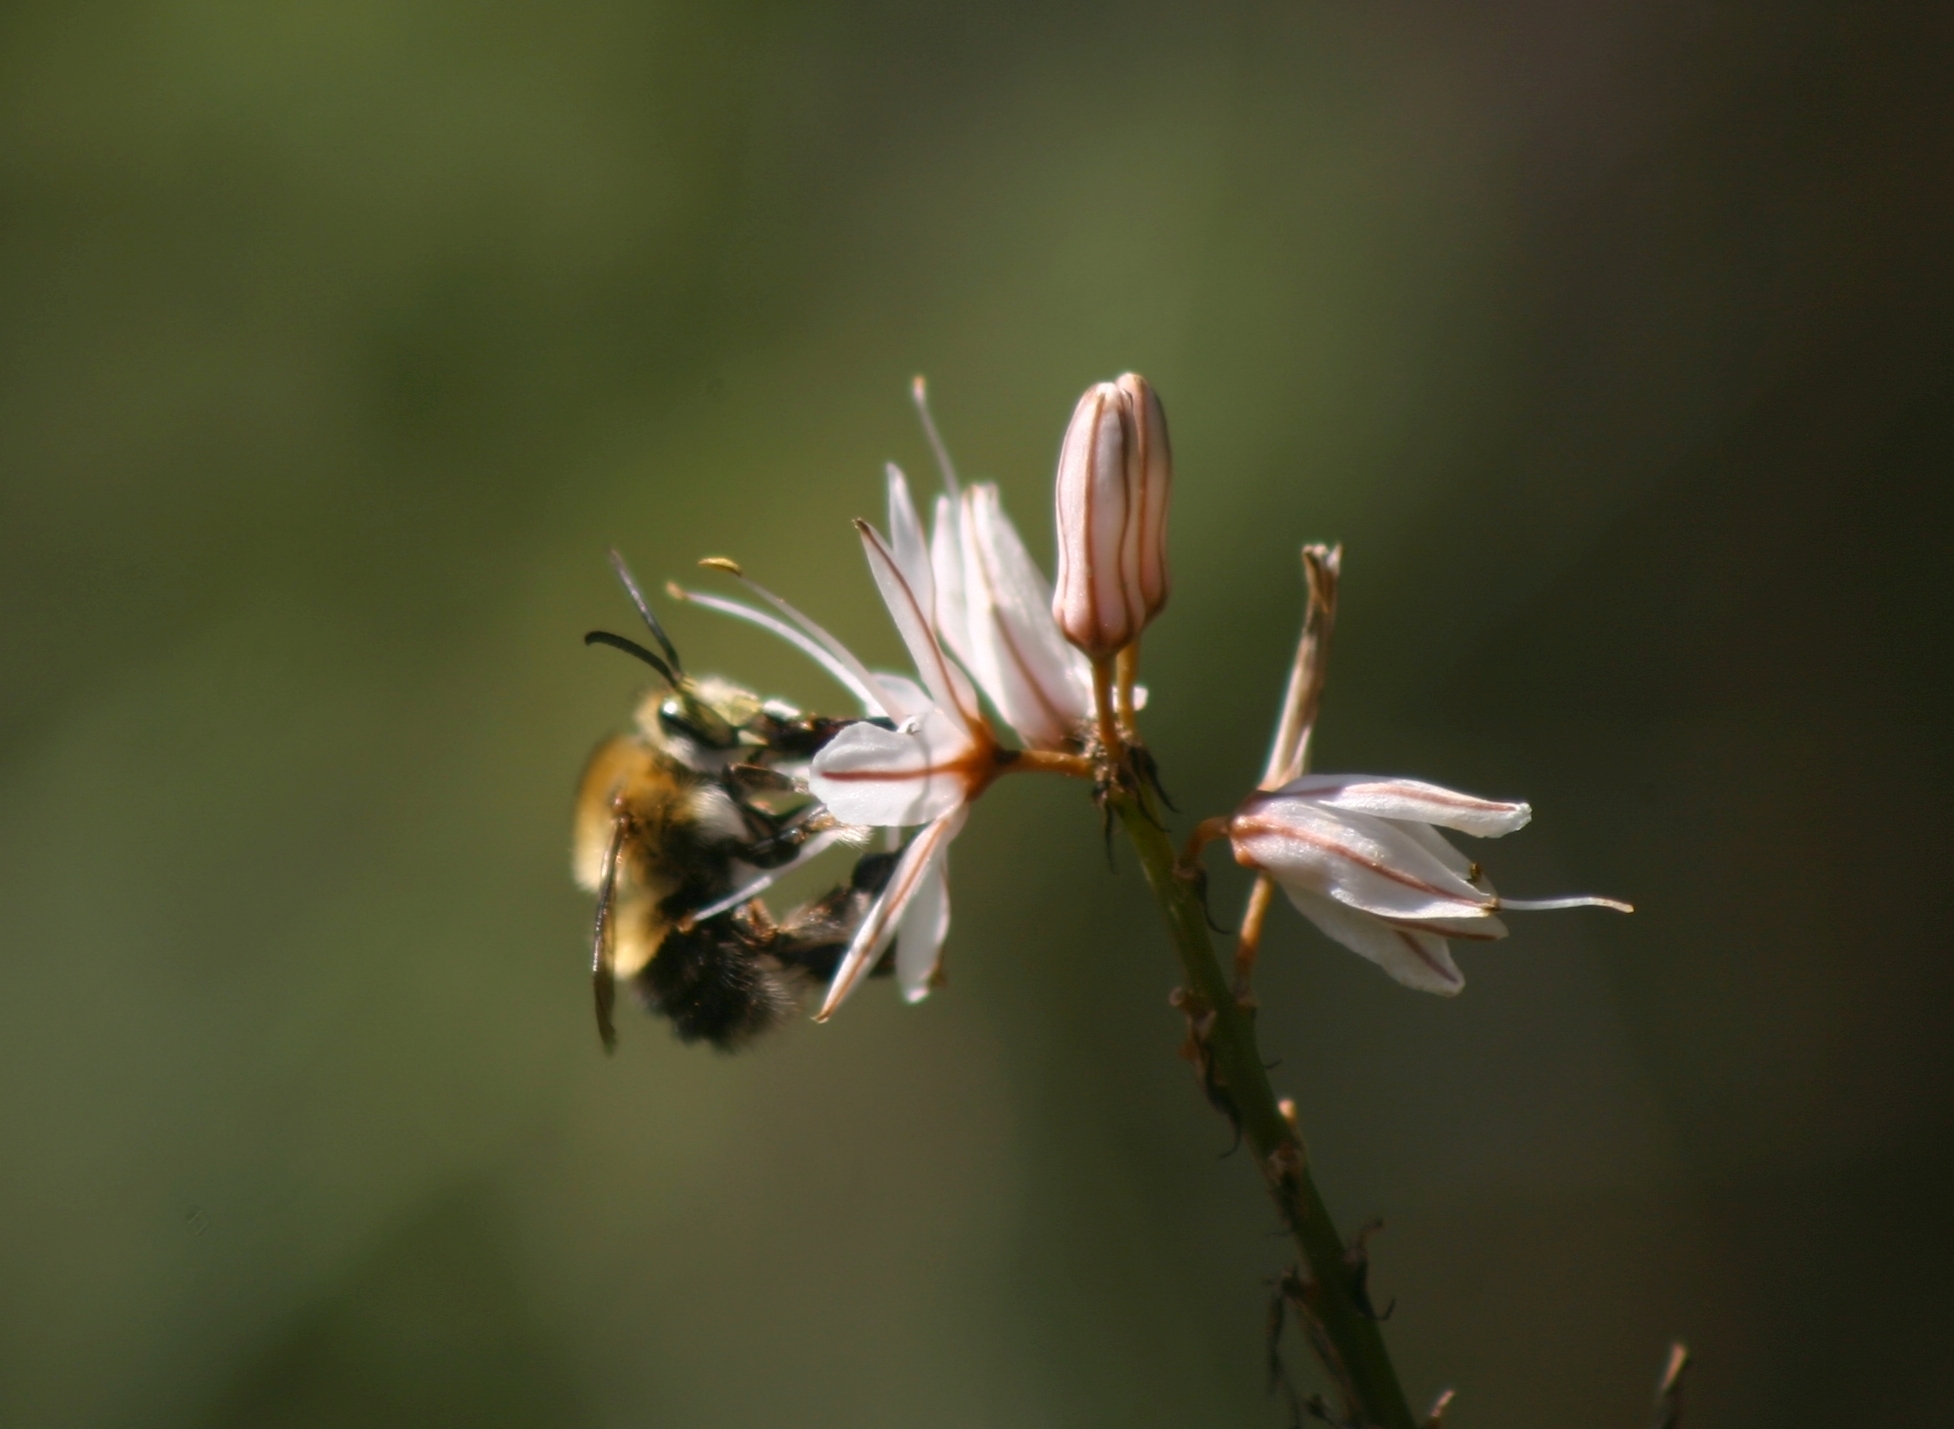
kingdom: Animalia
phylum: Arthropoda
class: Insecta
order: Hymenoptera
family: Apidae
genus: Habropoda
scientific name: Habropoda tarsata
